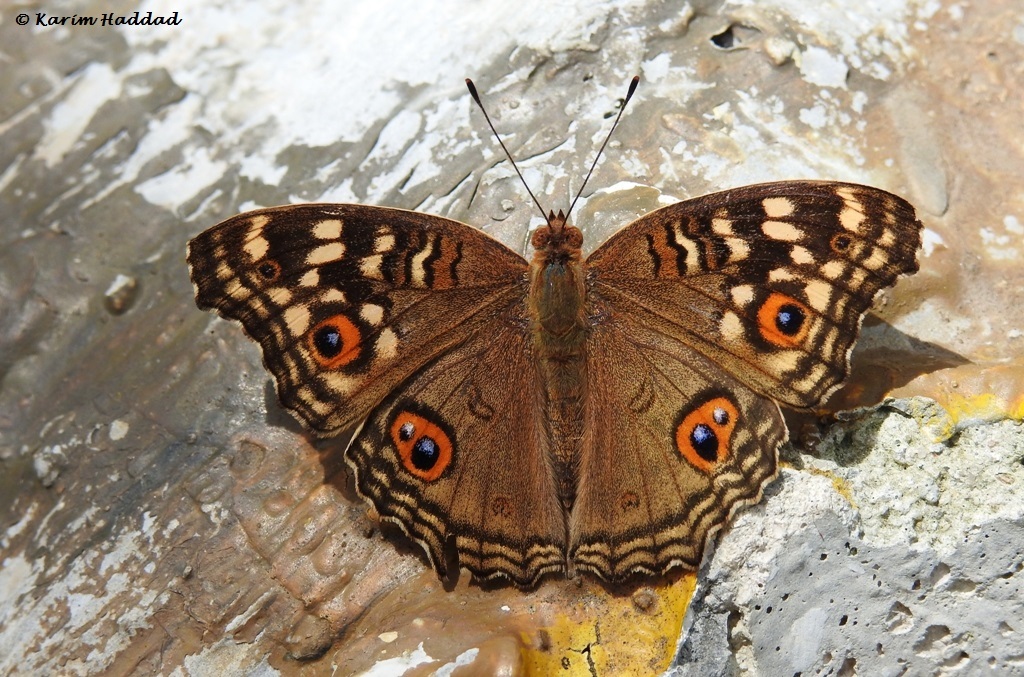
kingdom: Animalia
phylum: Arthropoda
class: Insecta
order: Lepidoptera
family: Nymphalidae
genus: Junonia
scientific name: Junonia lemonias
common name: Lemon pansy
